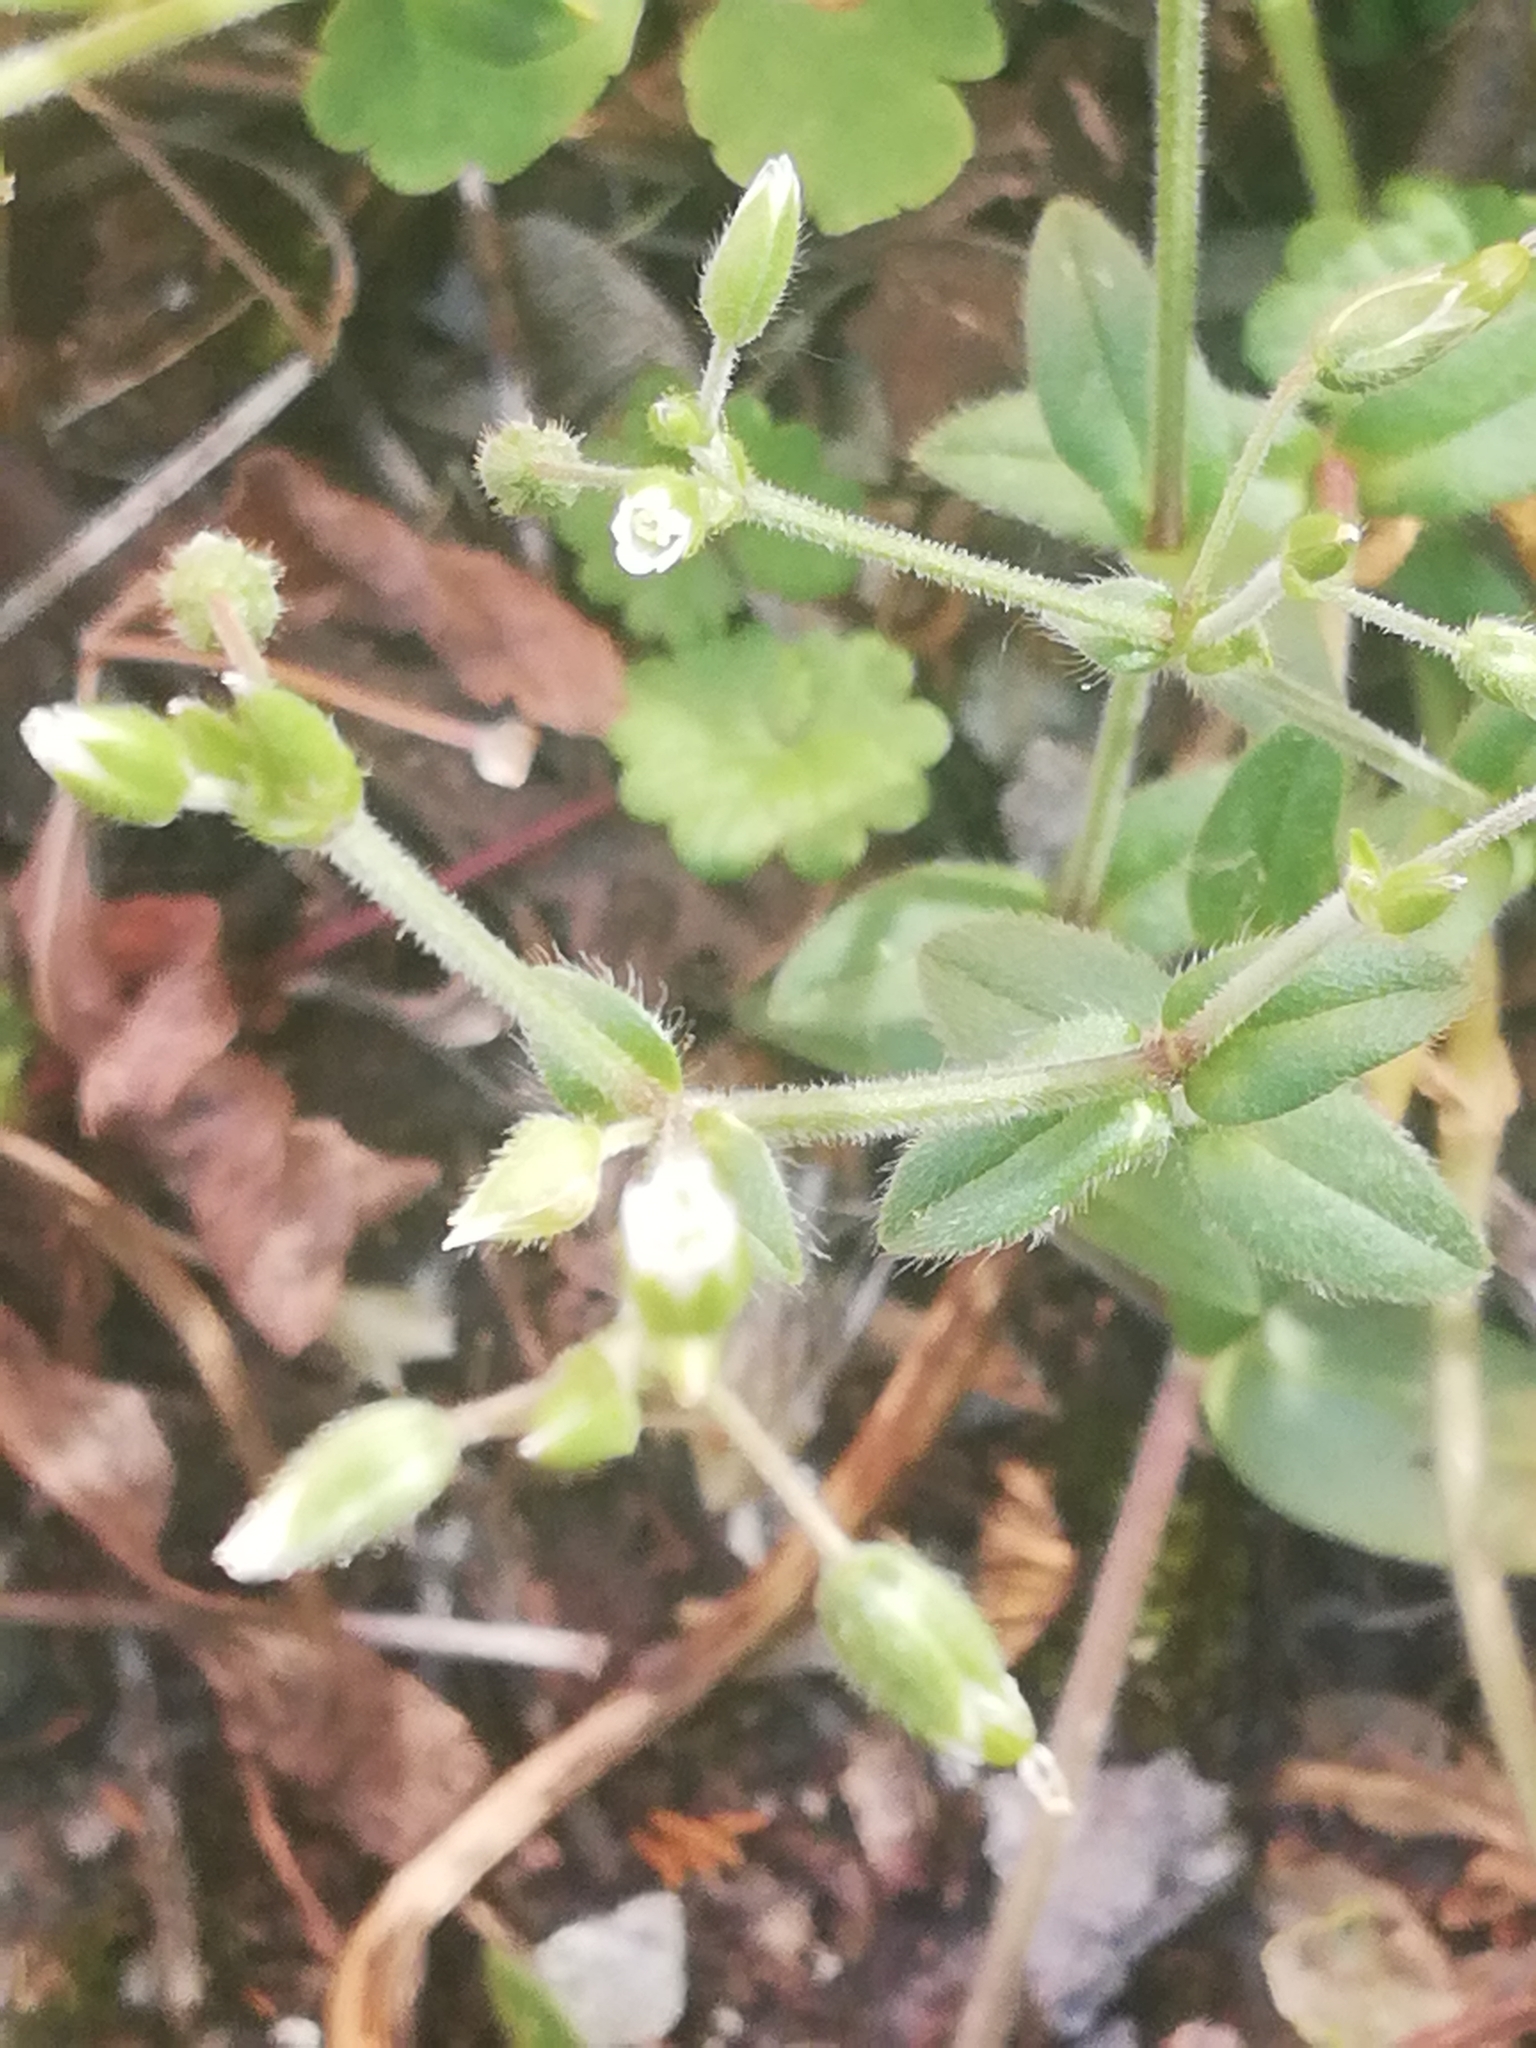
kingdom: Plantae
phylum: Tracheophyta
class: Magnoliopsida
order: Caryophyllales
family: Caryophyllaceae
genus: Cerastium
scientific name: Cerastium holosteoides
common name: Big chickweed
